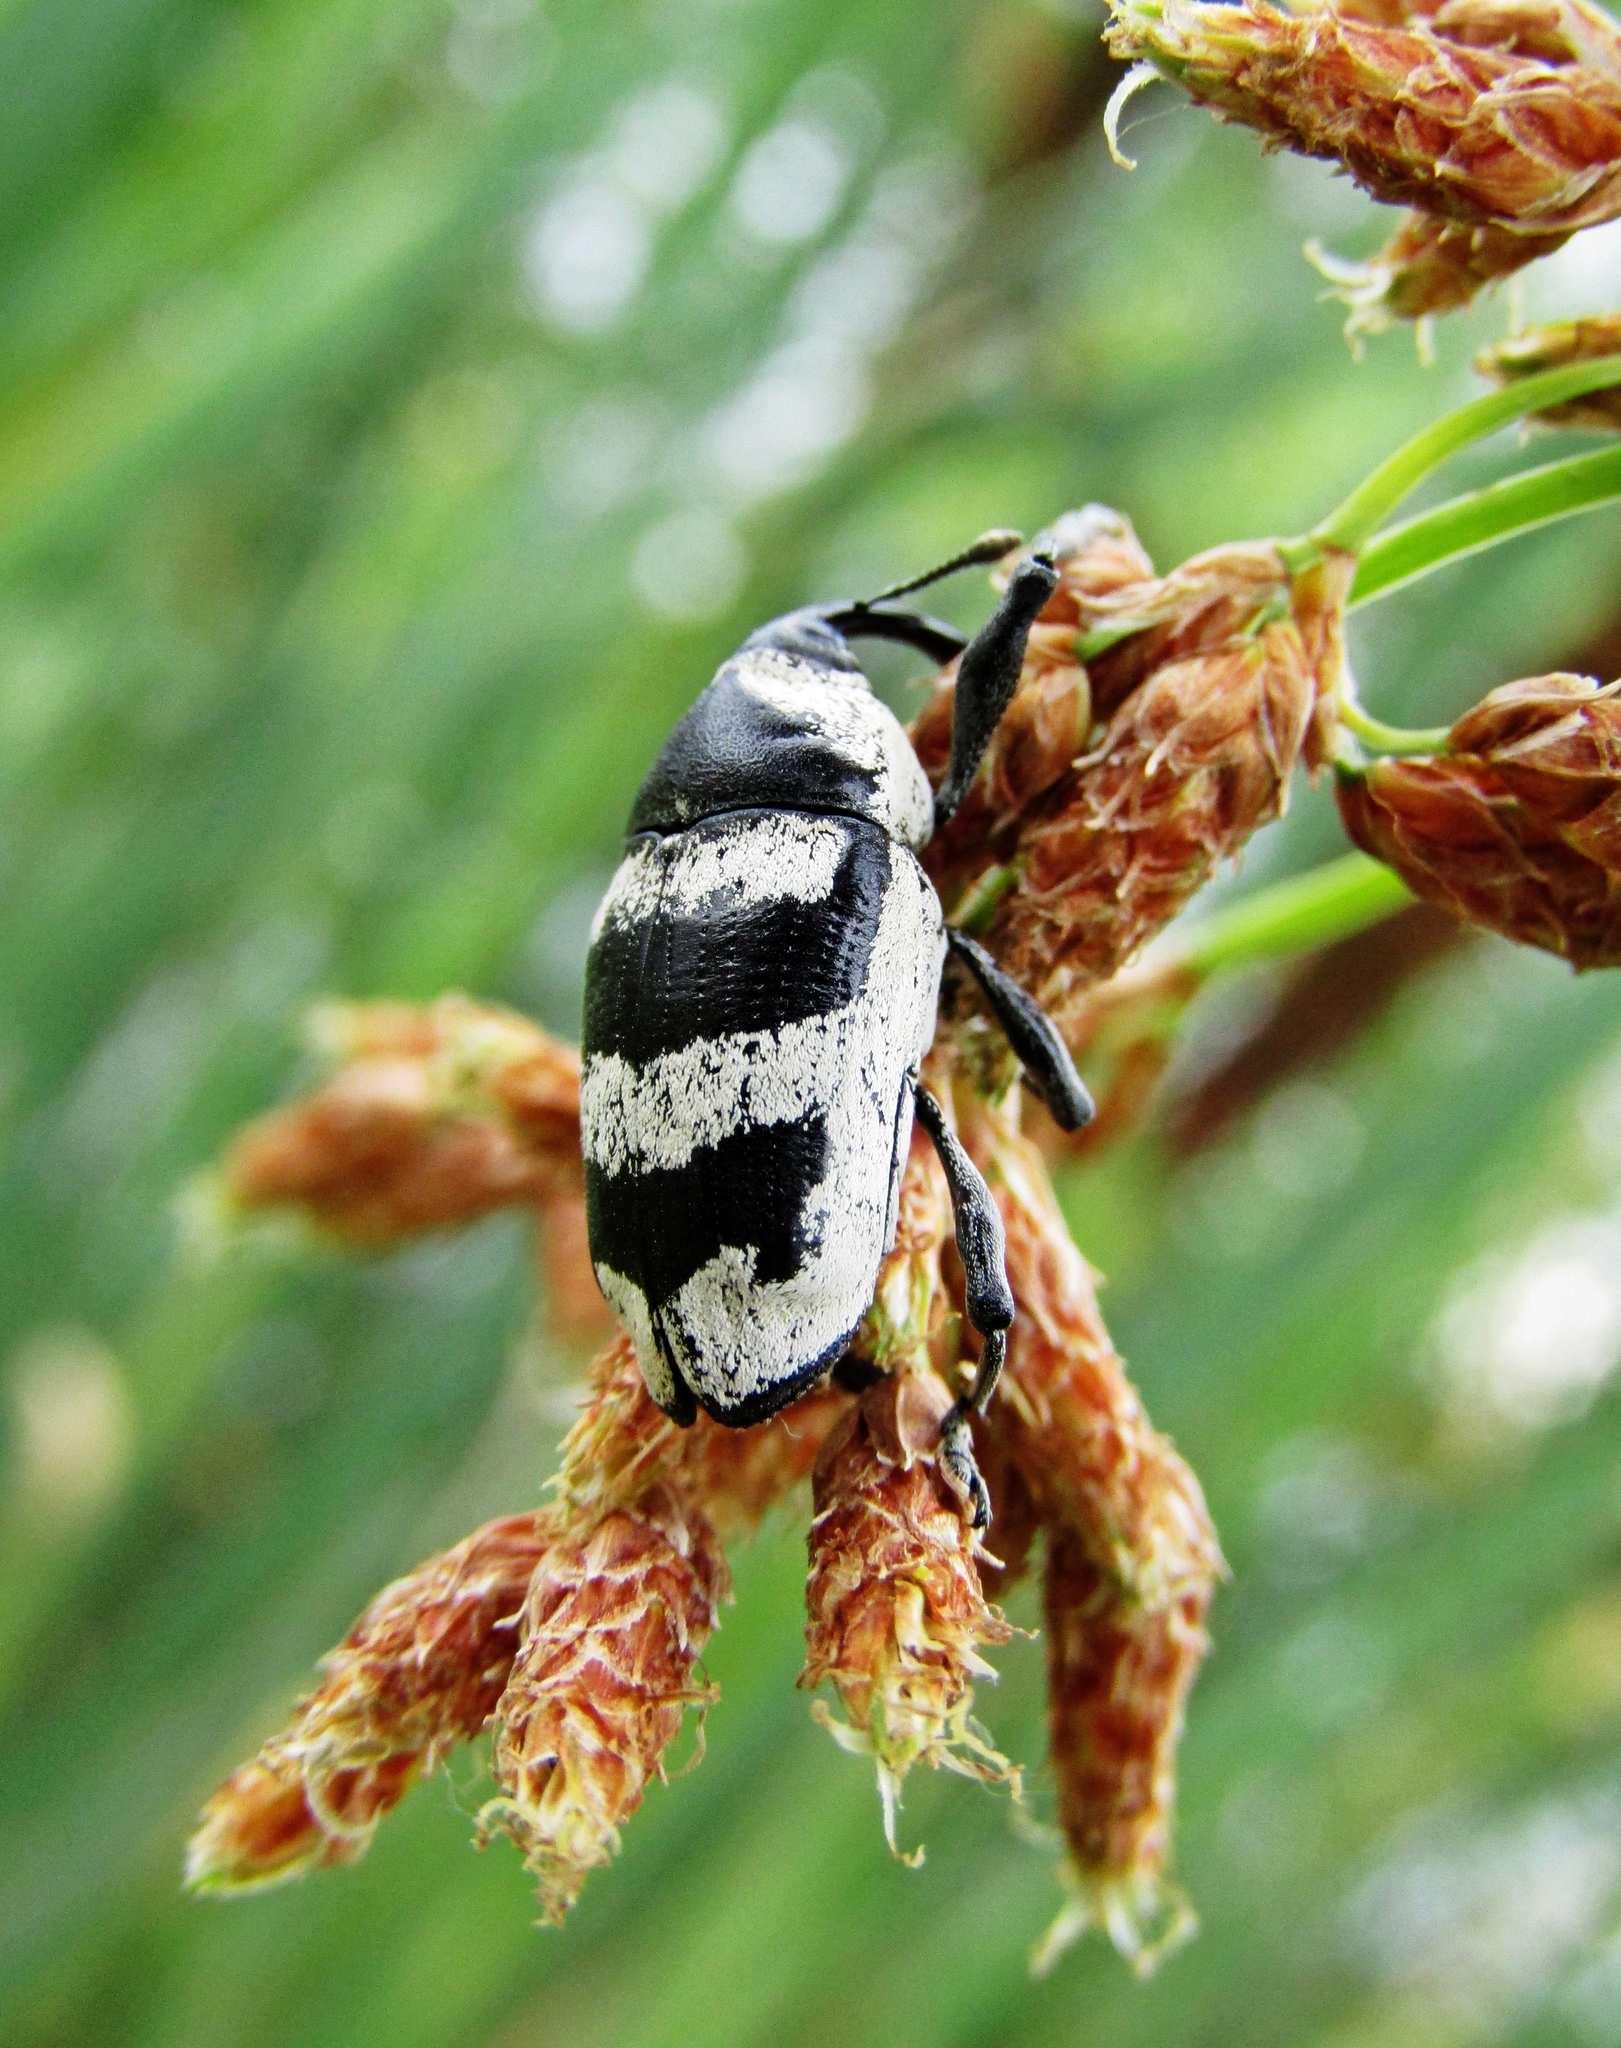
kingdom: Animalia
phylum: Arthropoda
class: Insecta
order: Coleoptera
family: Curculionidae
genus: Cholus
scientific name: Cholus annulatus
